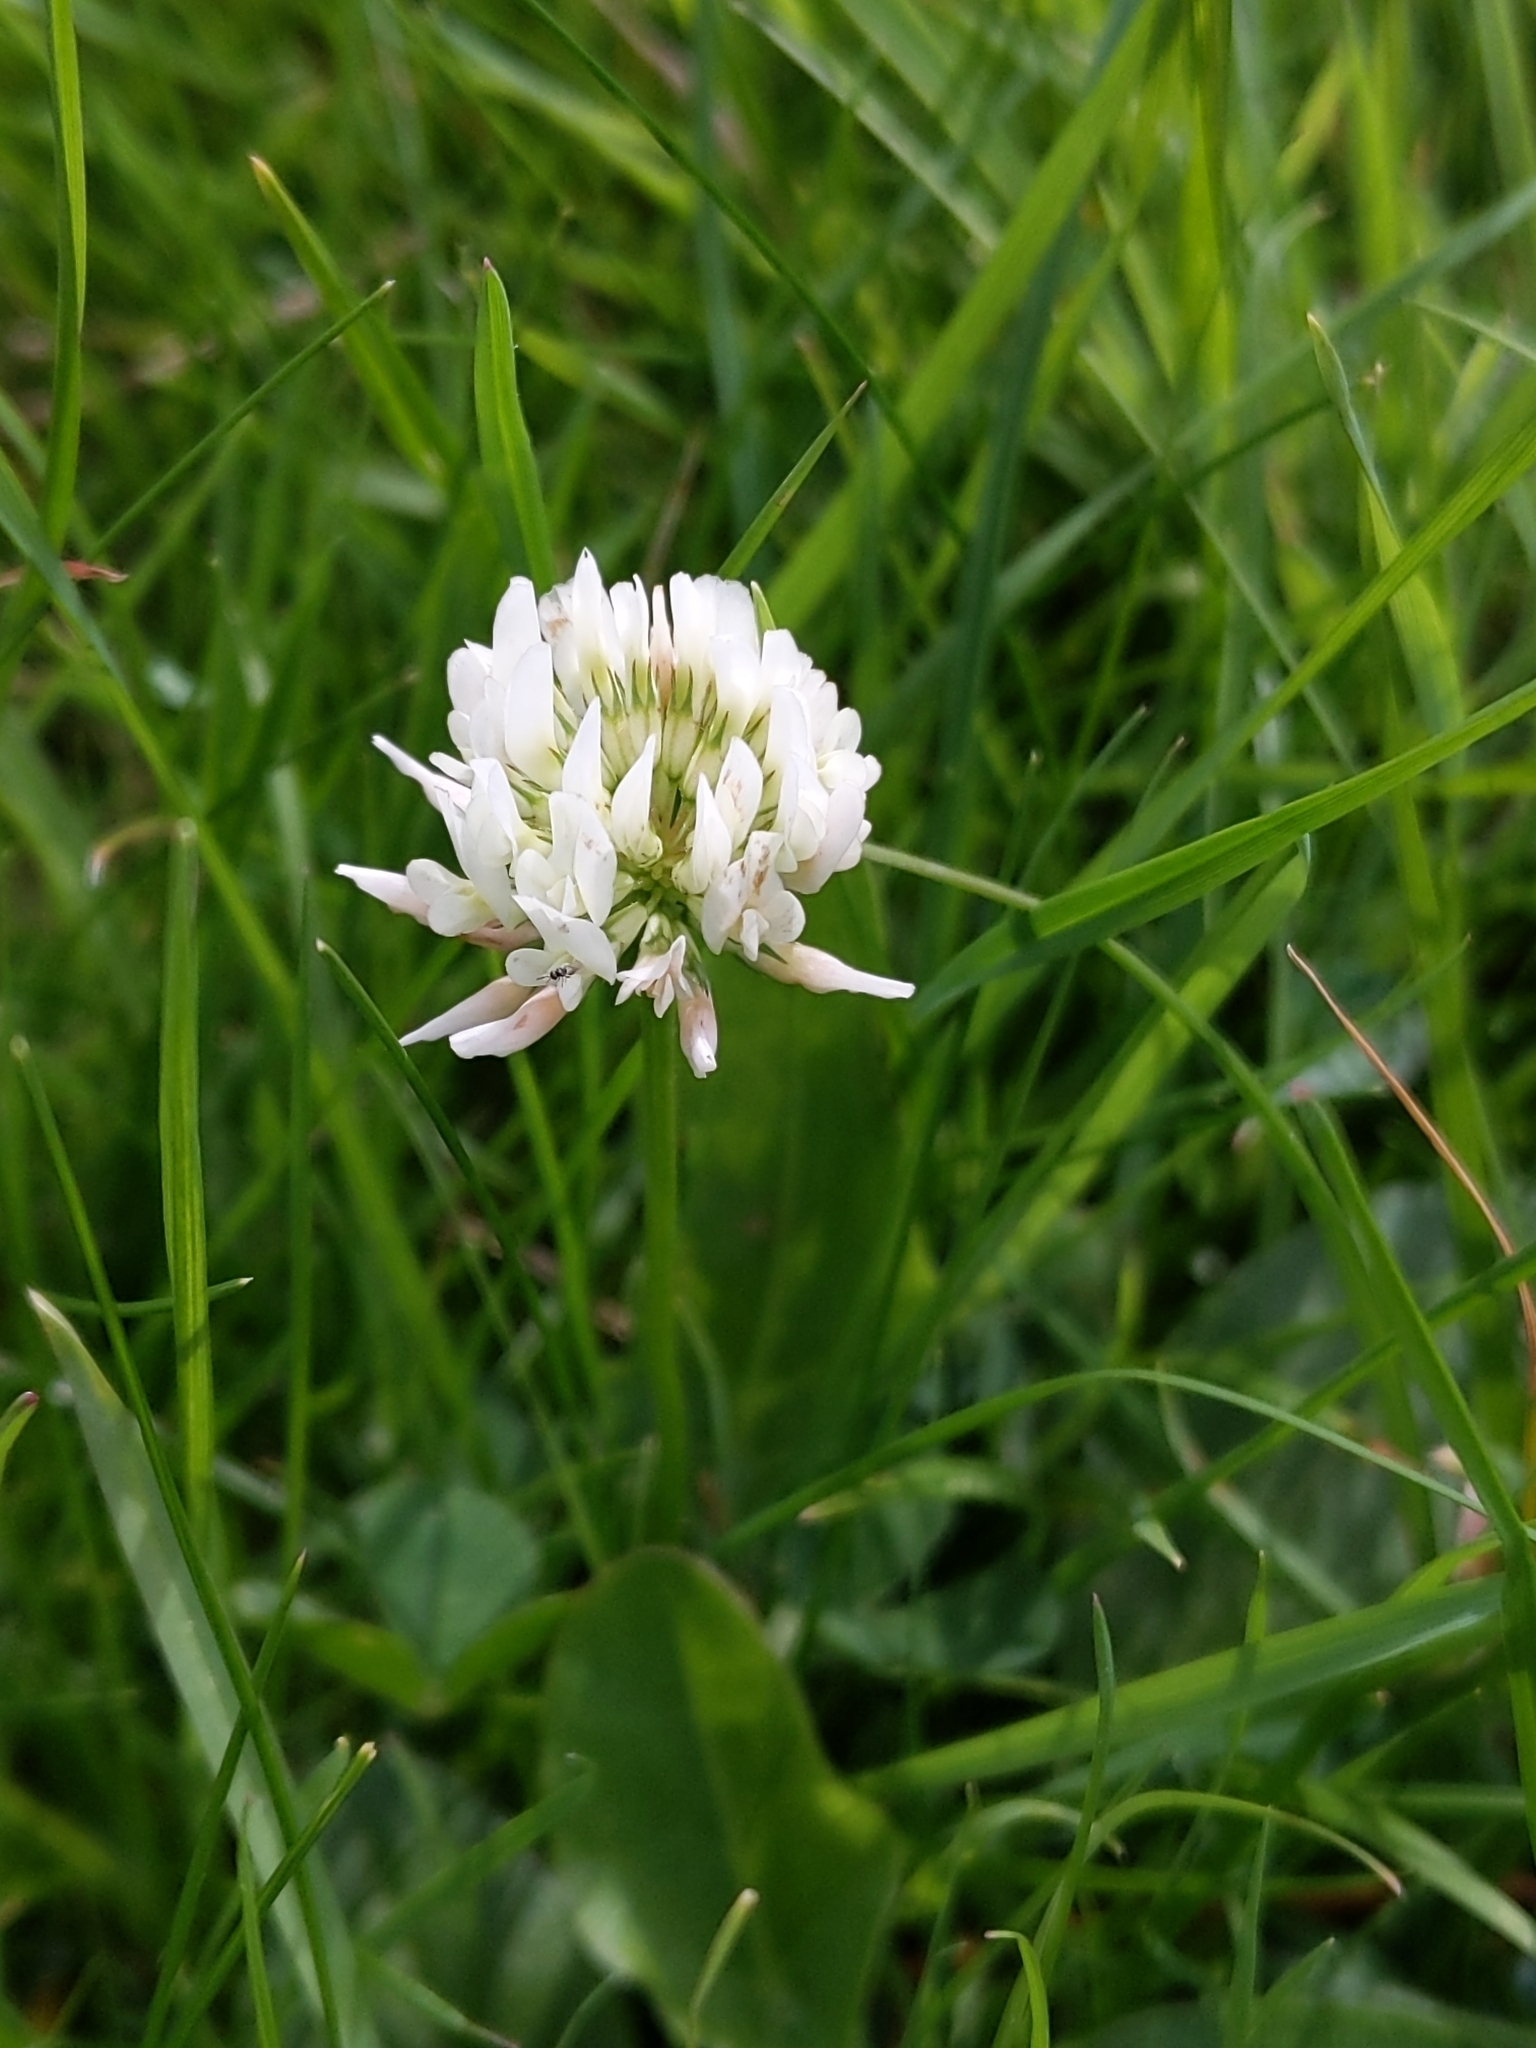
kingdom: Plantae
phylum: Tracheophyta
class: Magnoliopsida
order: Fabales
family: Fabaceae
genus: Trifolium
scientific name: Trifolium repens
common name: White clover
